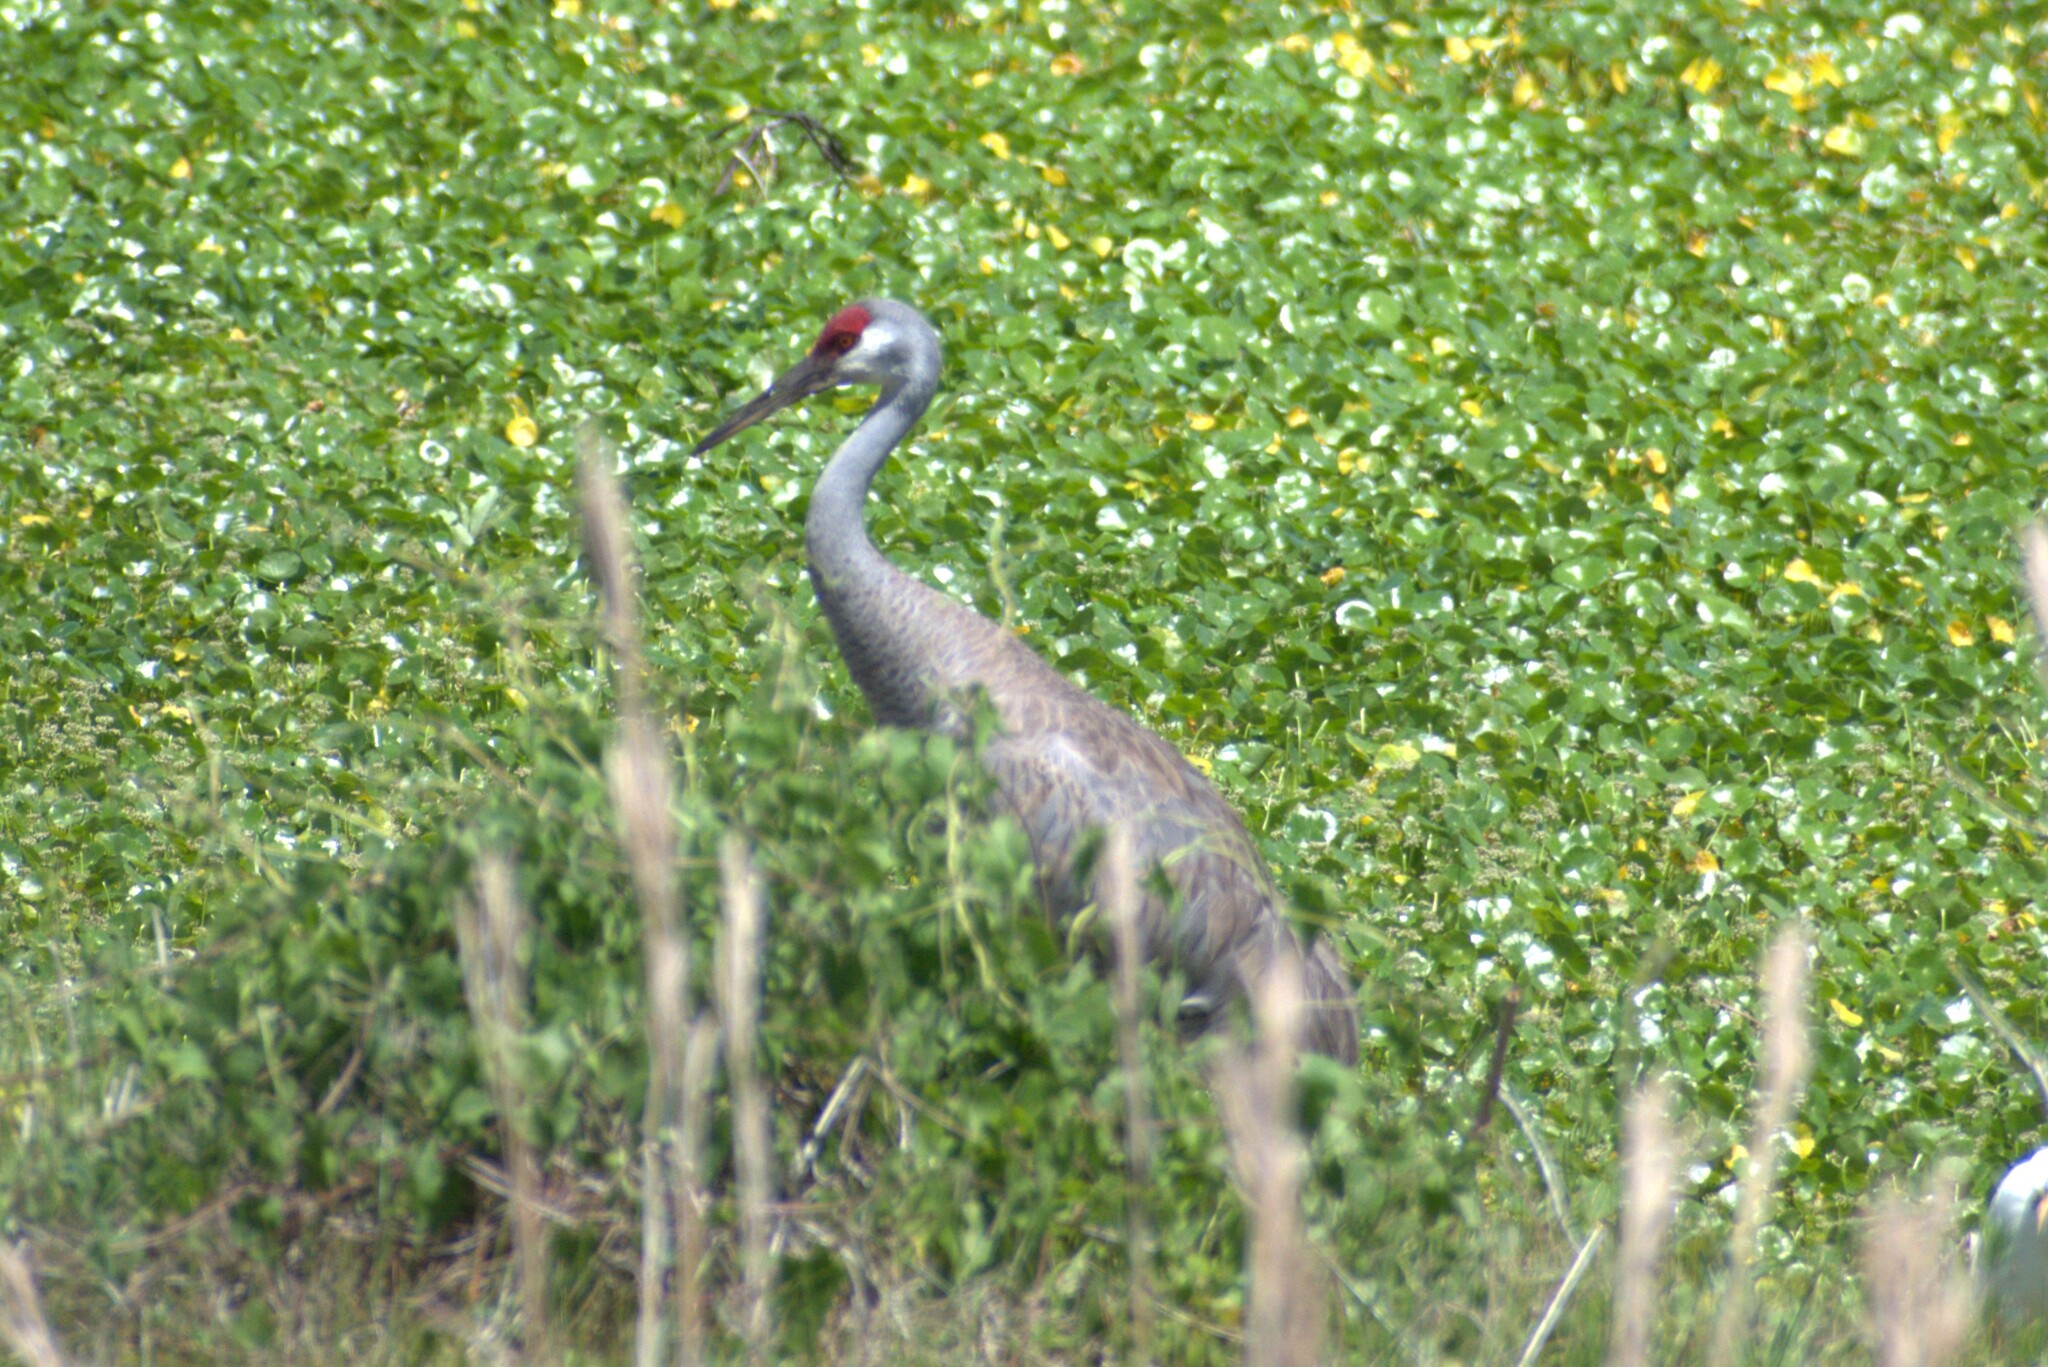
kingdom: Animalia
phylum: Chordata
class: Aves
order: Gruiformes
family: Gruidae
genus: Grus
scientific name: Grus canadensis
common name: Sandhill crane
